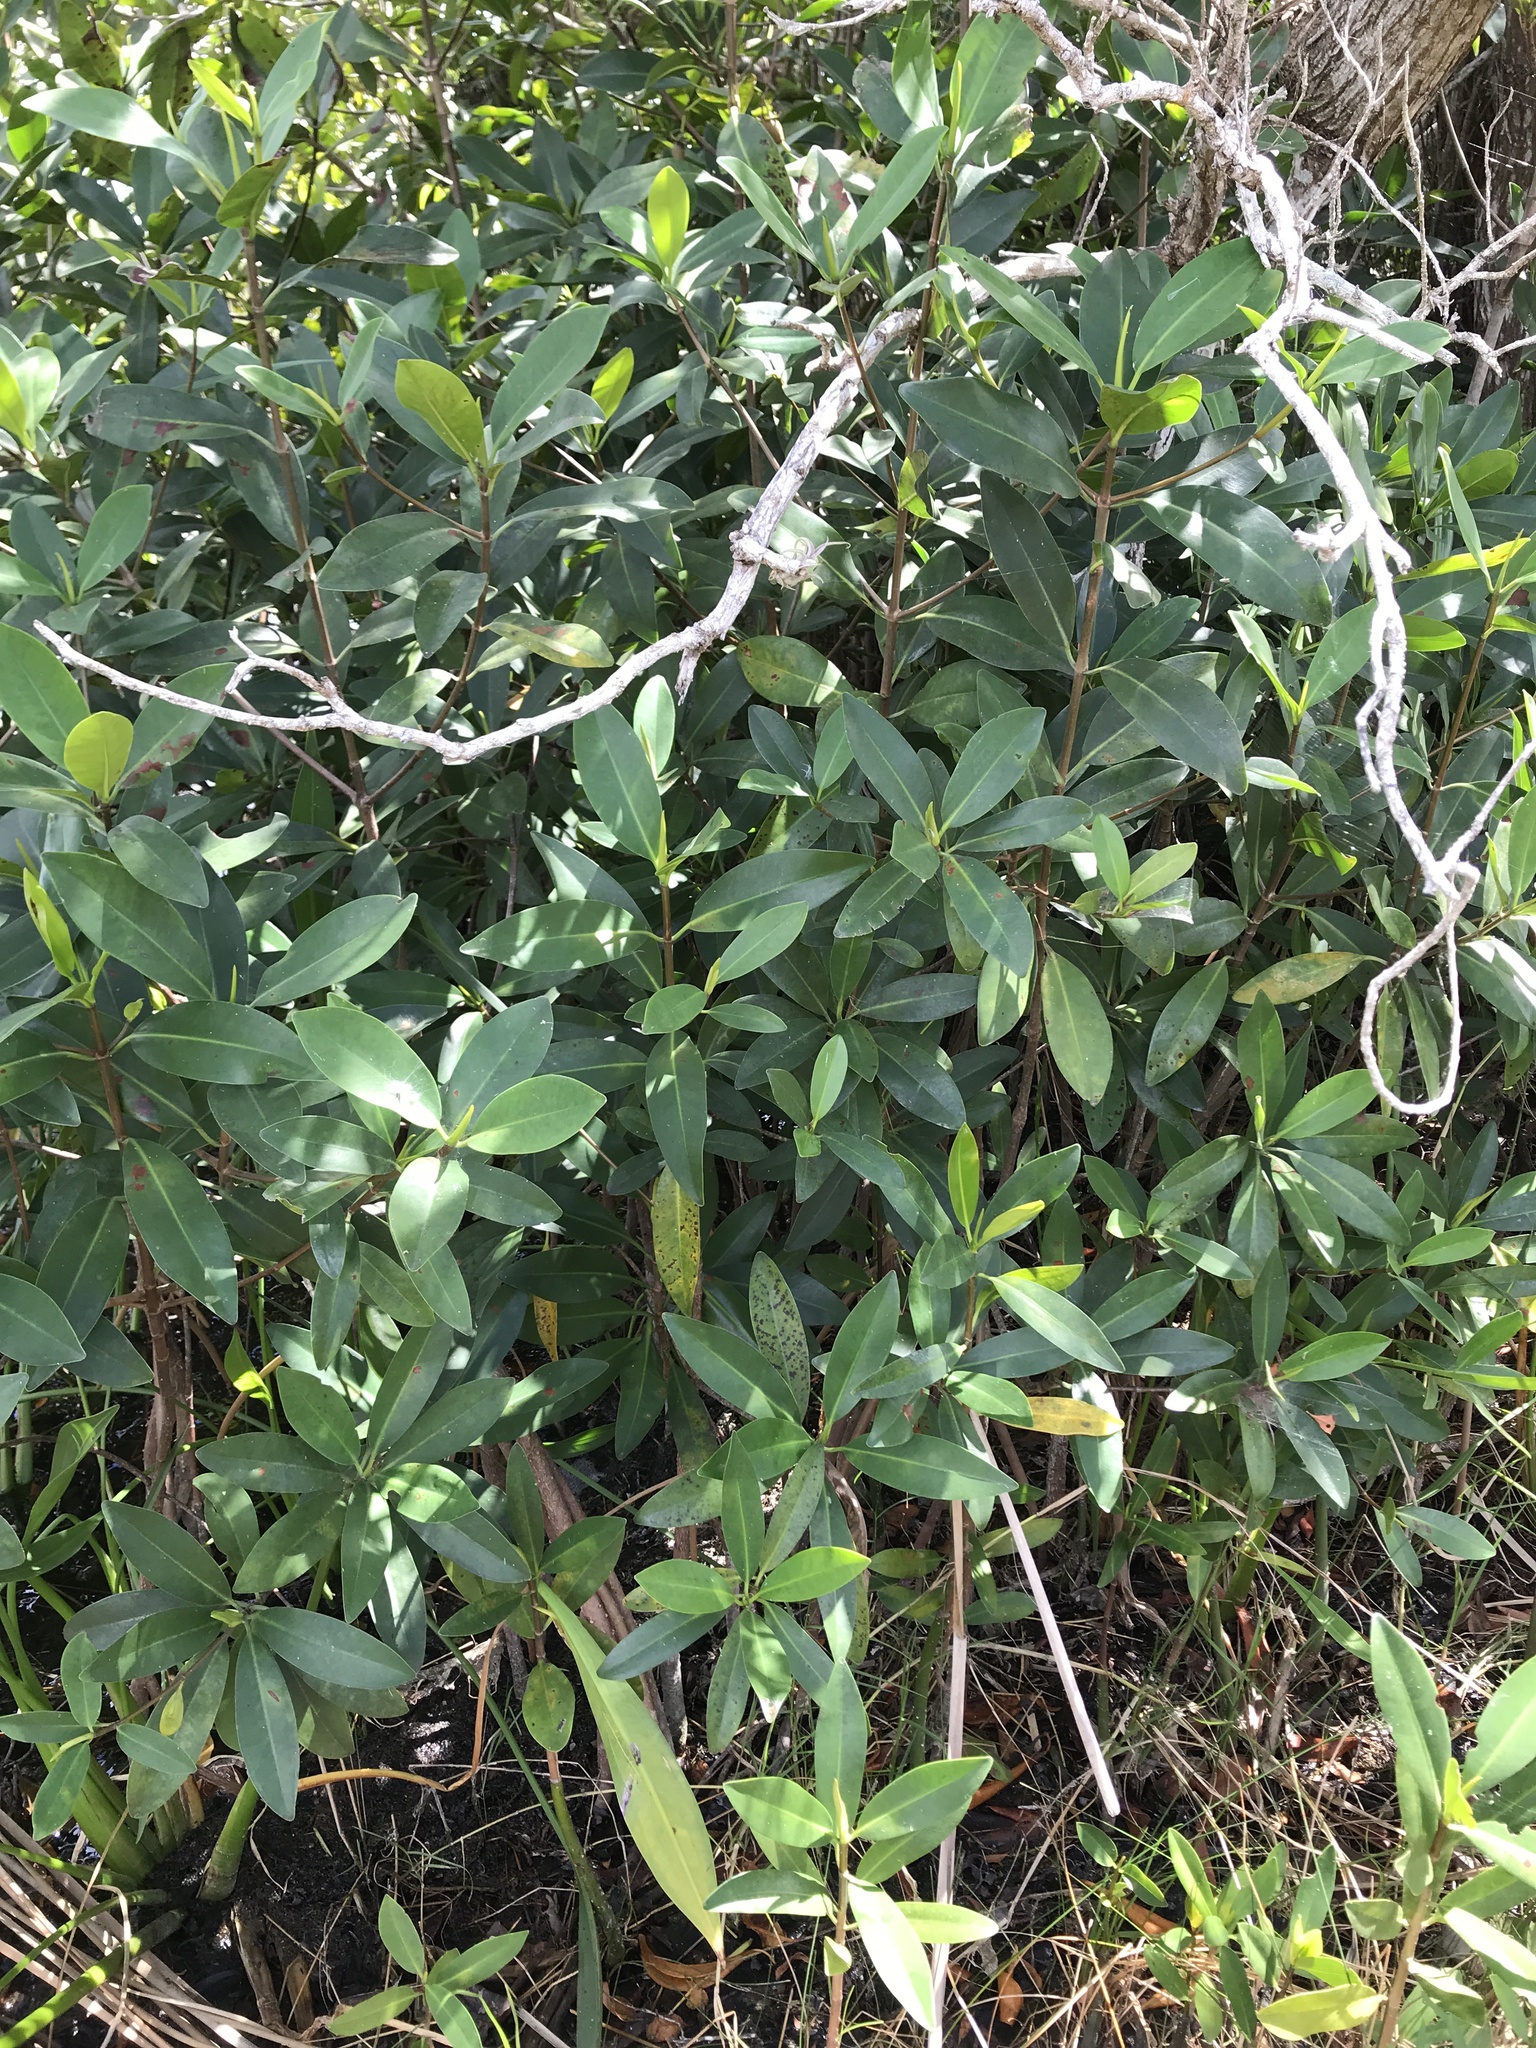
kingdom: Plantae
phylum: Tracheophyta
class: Magnoliopsida
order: Malpighiales
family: Rhizophoraceae
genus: Rhizophora
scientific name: Rhizophora mangle
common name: Red mangrove
